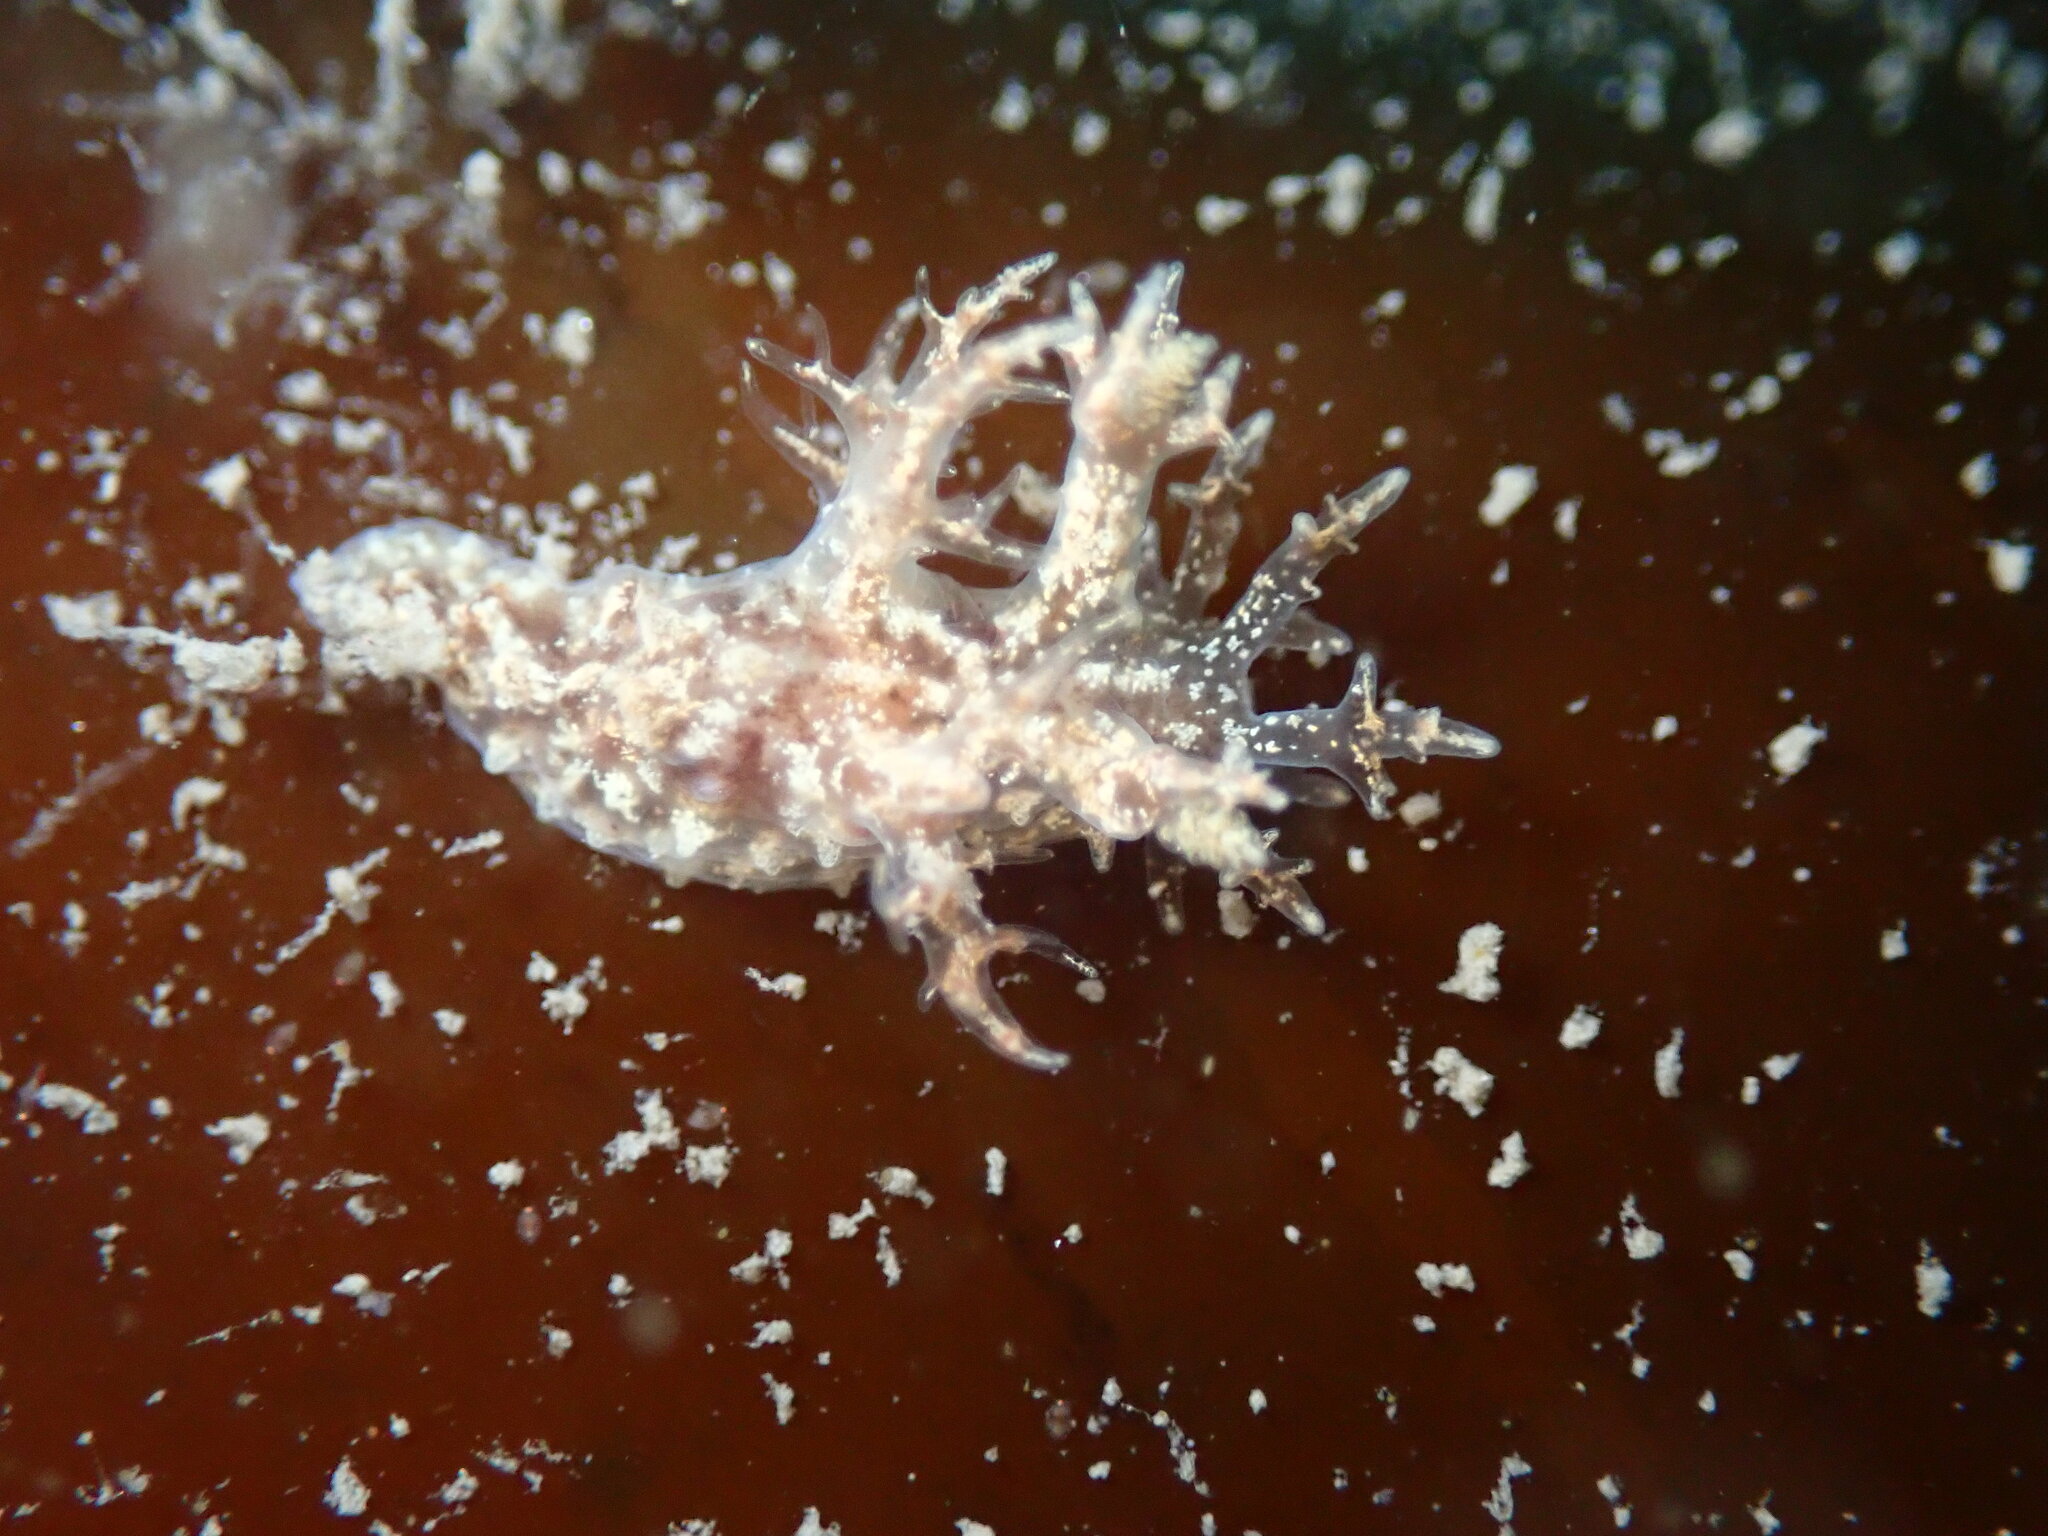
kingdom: Animalia
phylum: Mollusca
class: Gastropoda
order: Nudibranchia
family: Dendronotidae
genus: Dendronotus
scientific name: Dendronotus venustus
